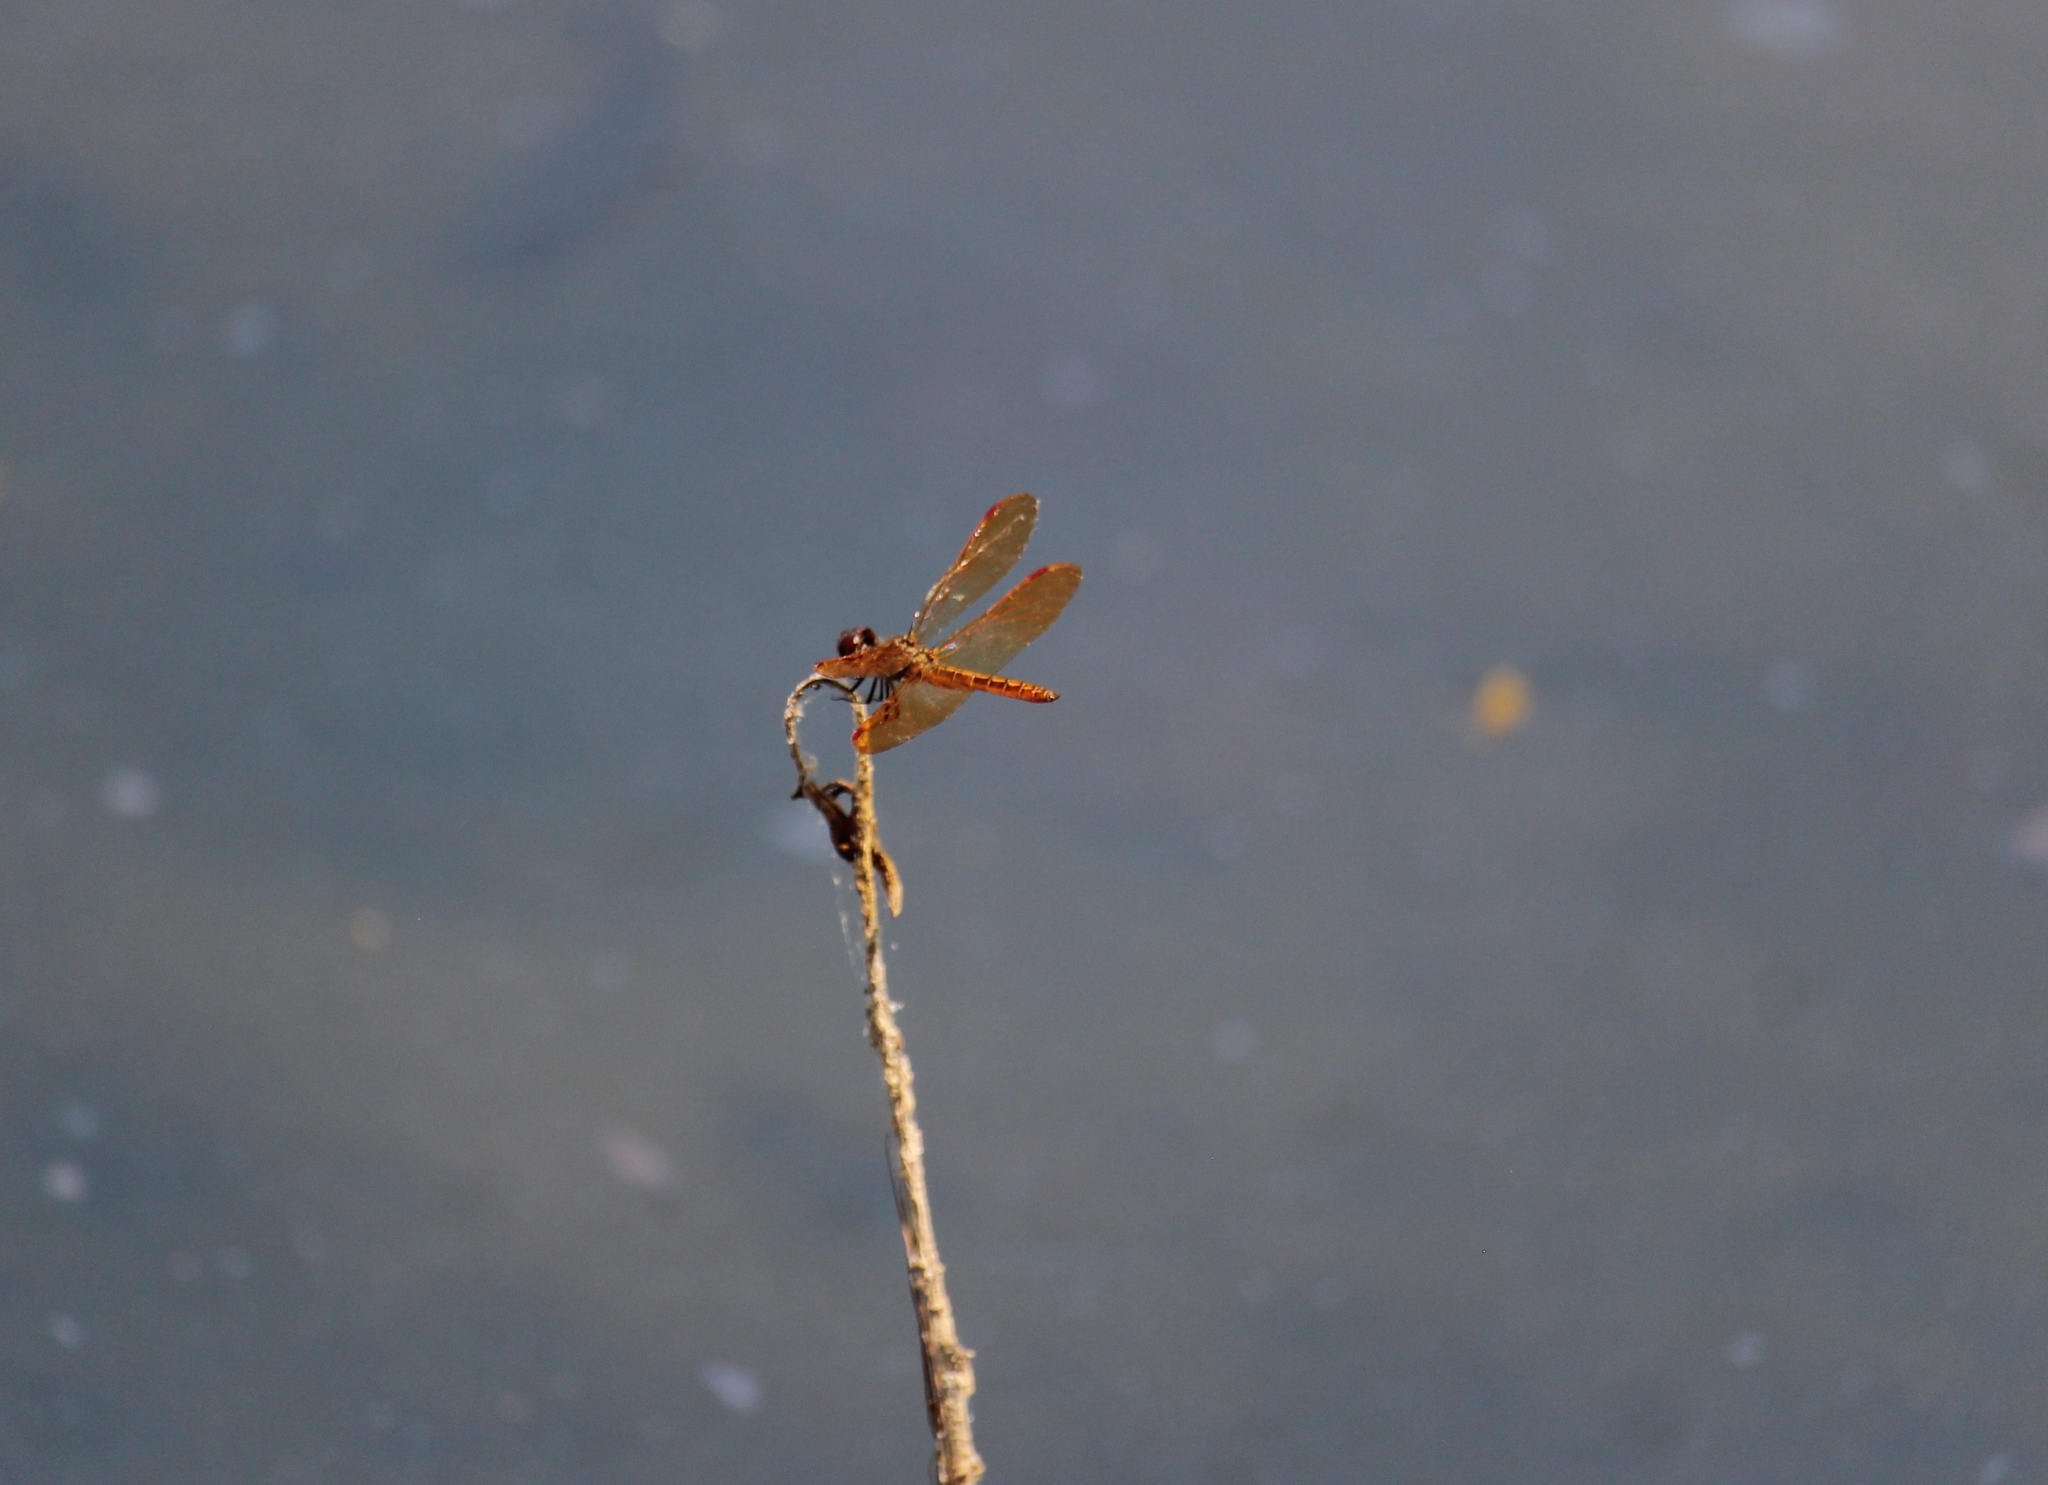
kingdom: Animalia
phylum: Arthropoda
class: Insecta
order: Odonata
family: Libellulidae
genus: Perithemis
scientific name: Perithemis tenera
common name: Eastern amberwing
